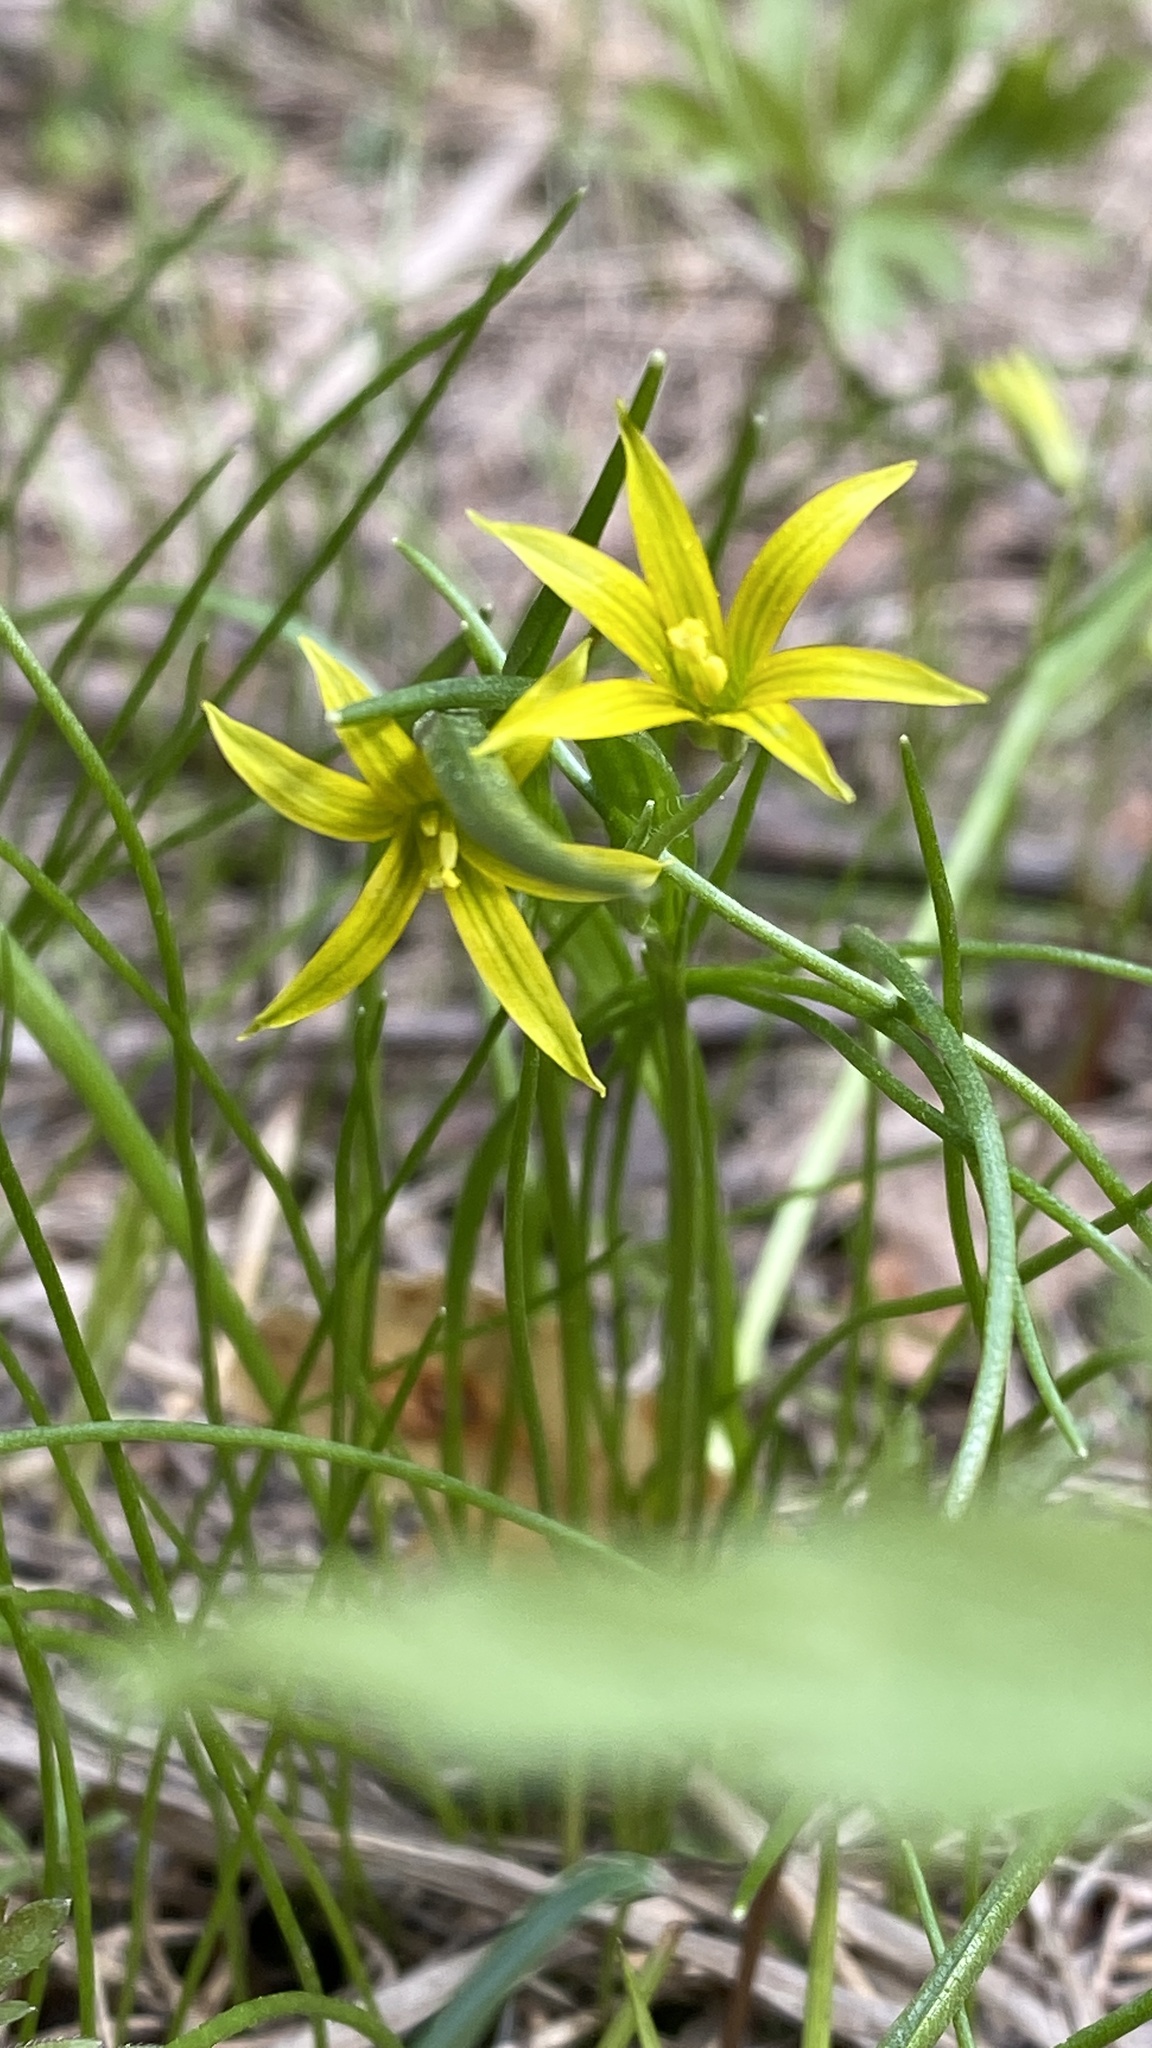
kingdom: Plantae
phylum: Tracheophyta
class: Liliopsida
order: Liliales
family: Liliaceae
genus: Gagea
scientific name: Gagea minima
